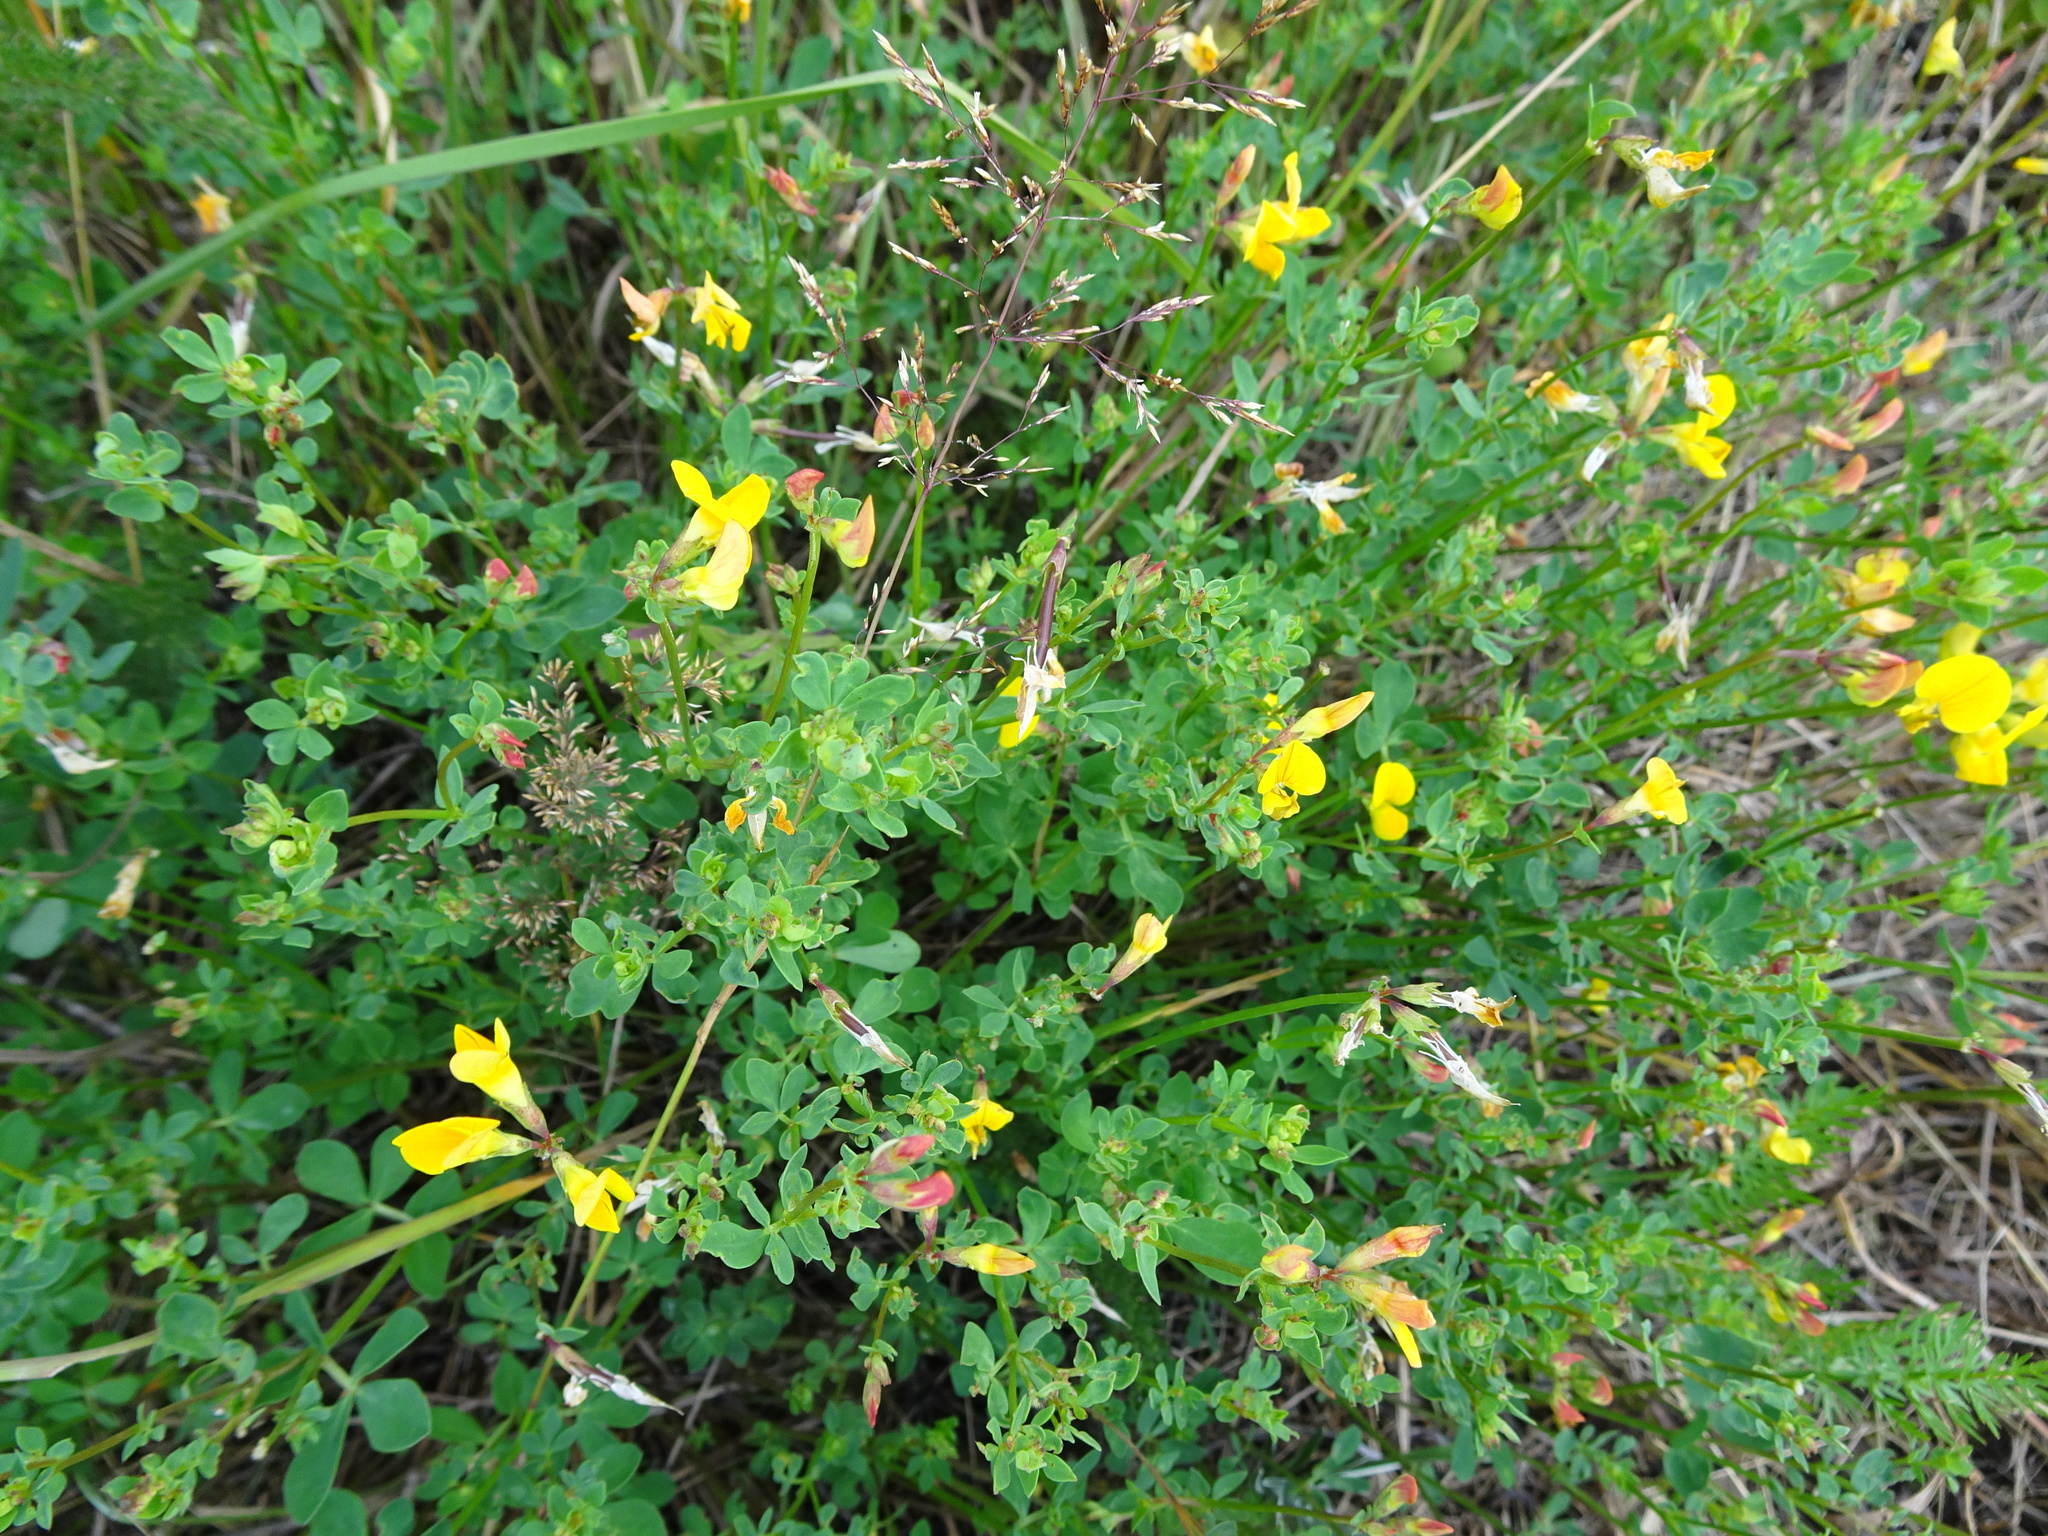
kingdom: Plantae
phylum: Tracheophyta
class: Magnoliopsida
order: Fabales
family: Fabaceae
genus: Lotus
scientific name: Lotus corniculatus
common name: Common bird's-foot-trefoil
